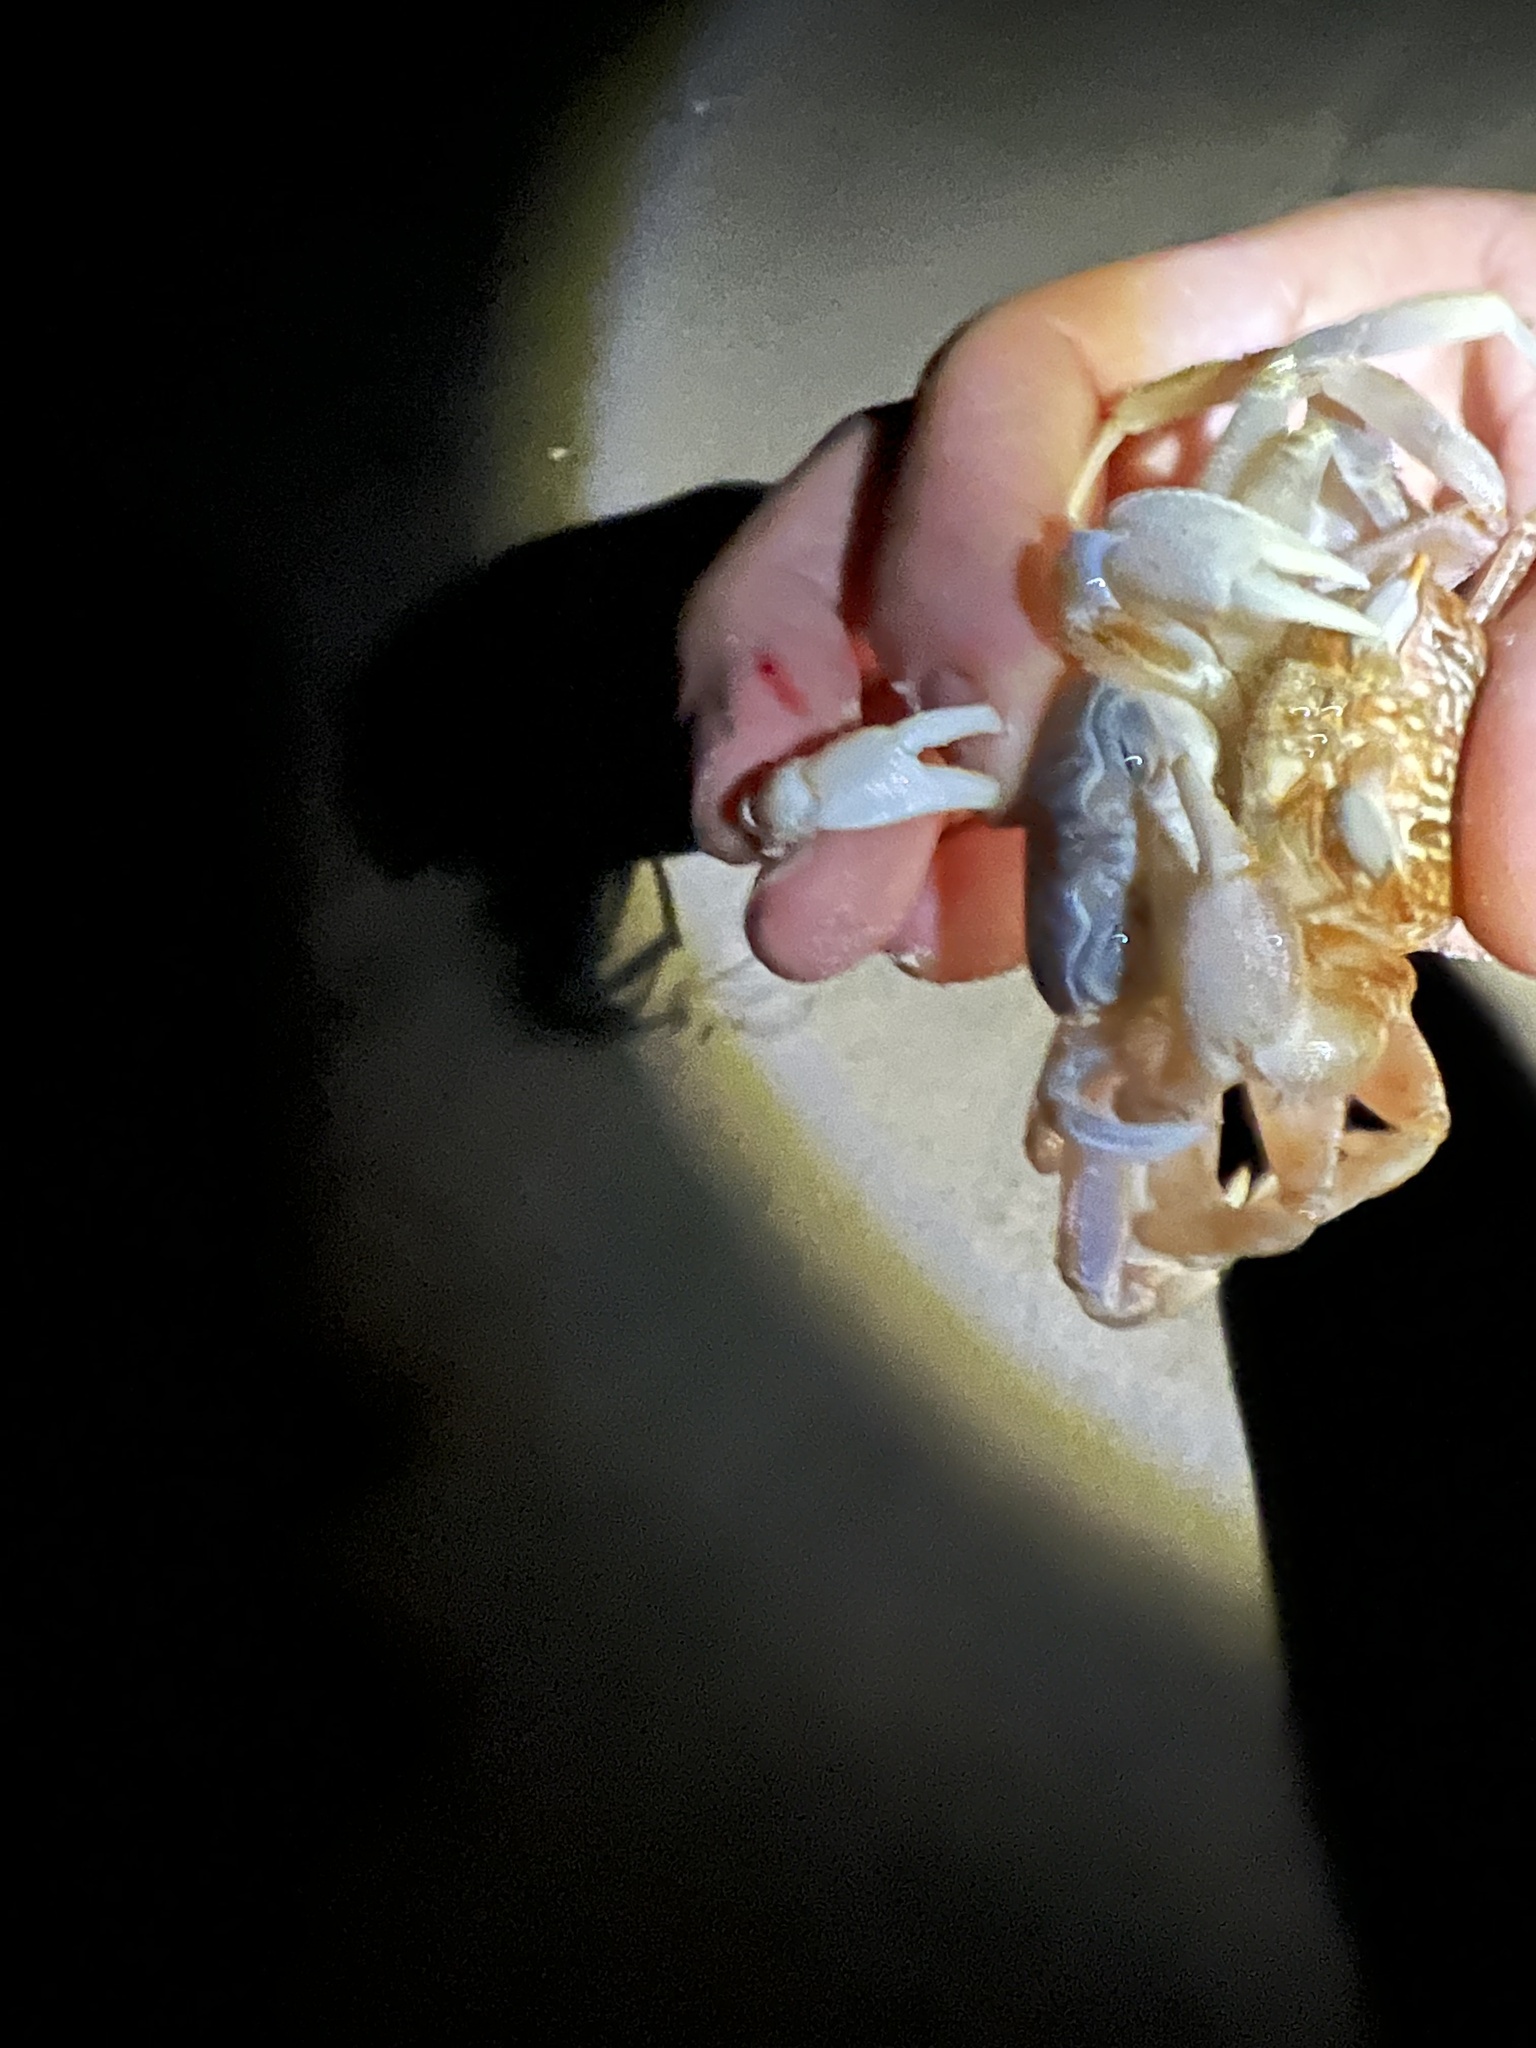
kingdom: Animalia
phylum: Arthropoda
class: Malacostraca
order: Decapoda
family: Ocypodidae
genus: Ocypode
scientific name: Ocypode gaudichaudii
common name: Pacific ghost crab
